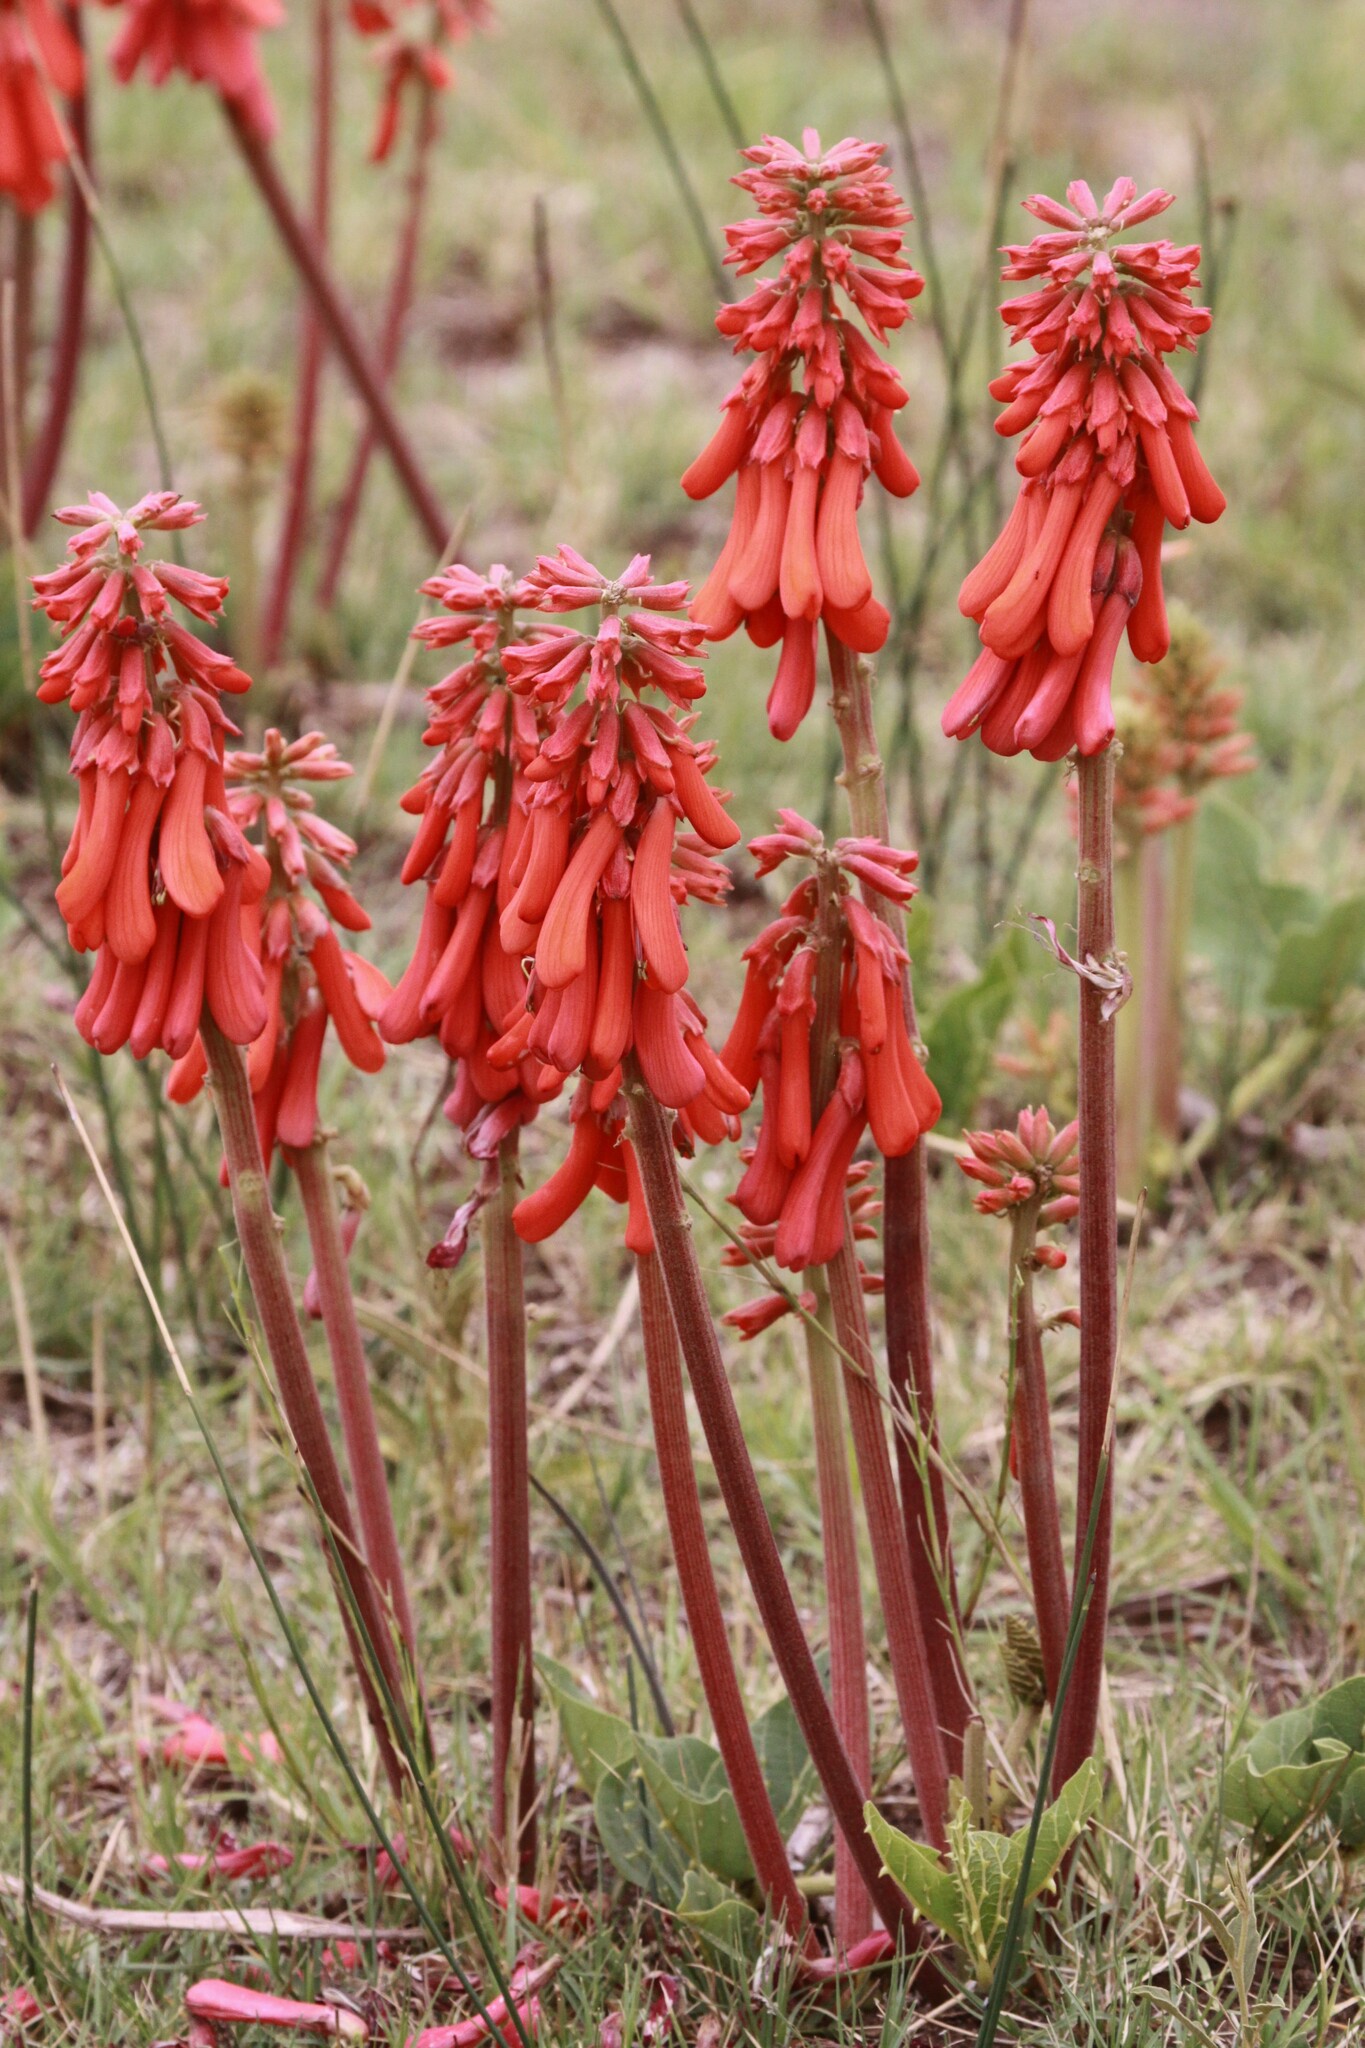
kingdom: Plantae
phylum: Tracheophyta
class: Magnoliopsida
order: Fabales
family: Fabaceae
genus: Erythrina
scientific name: Erythrina zeyheri
